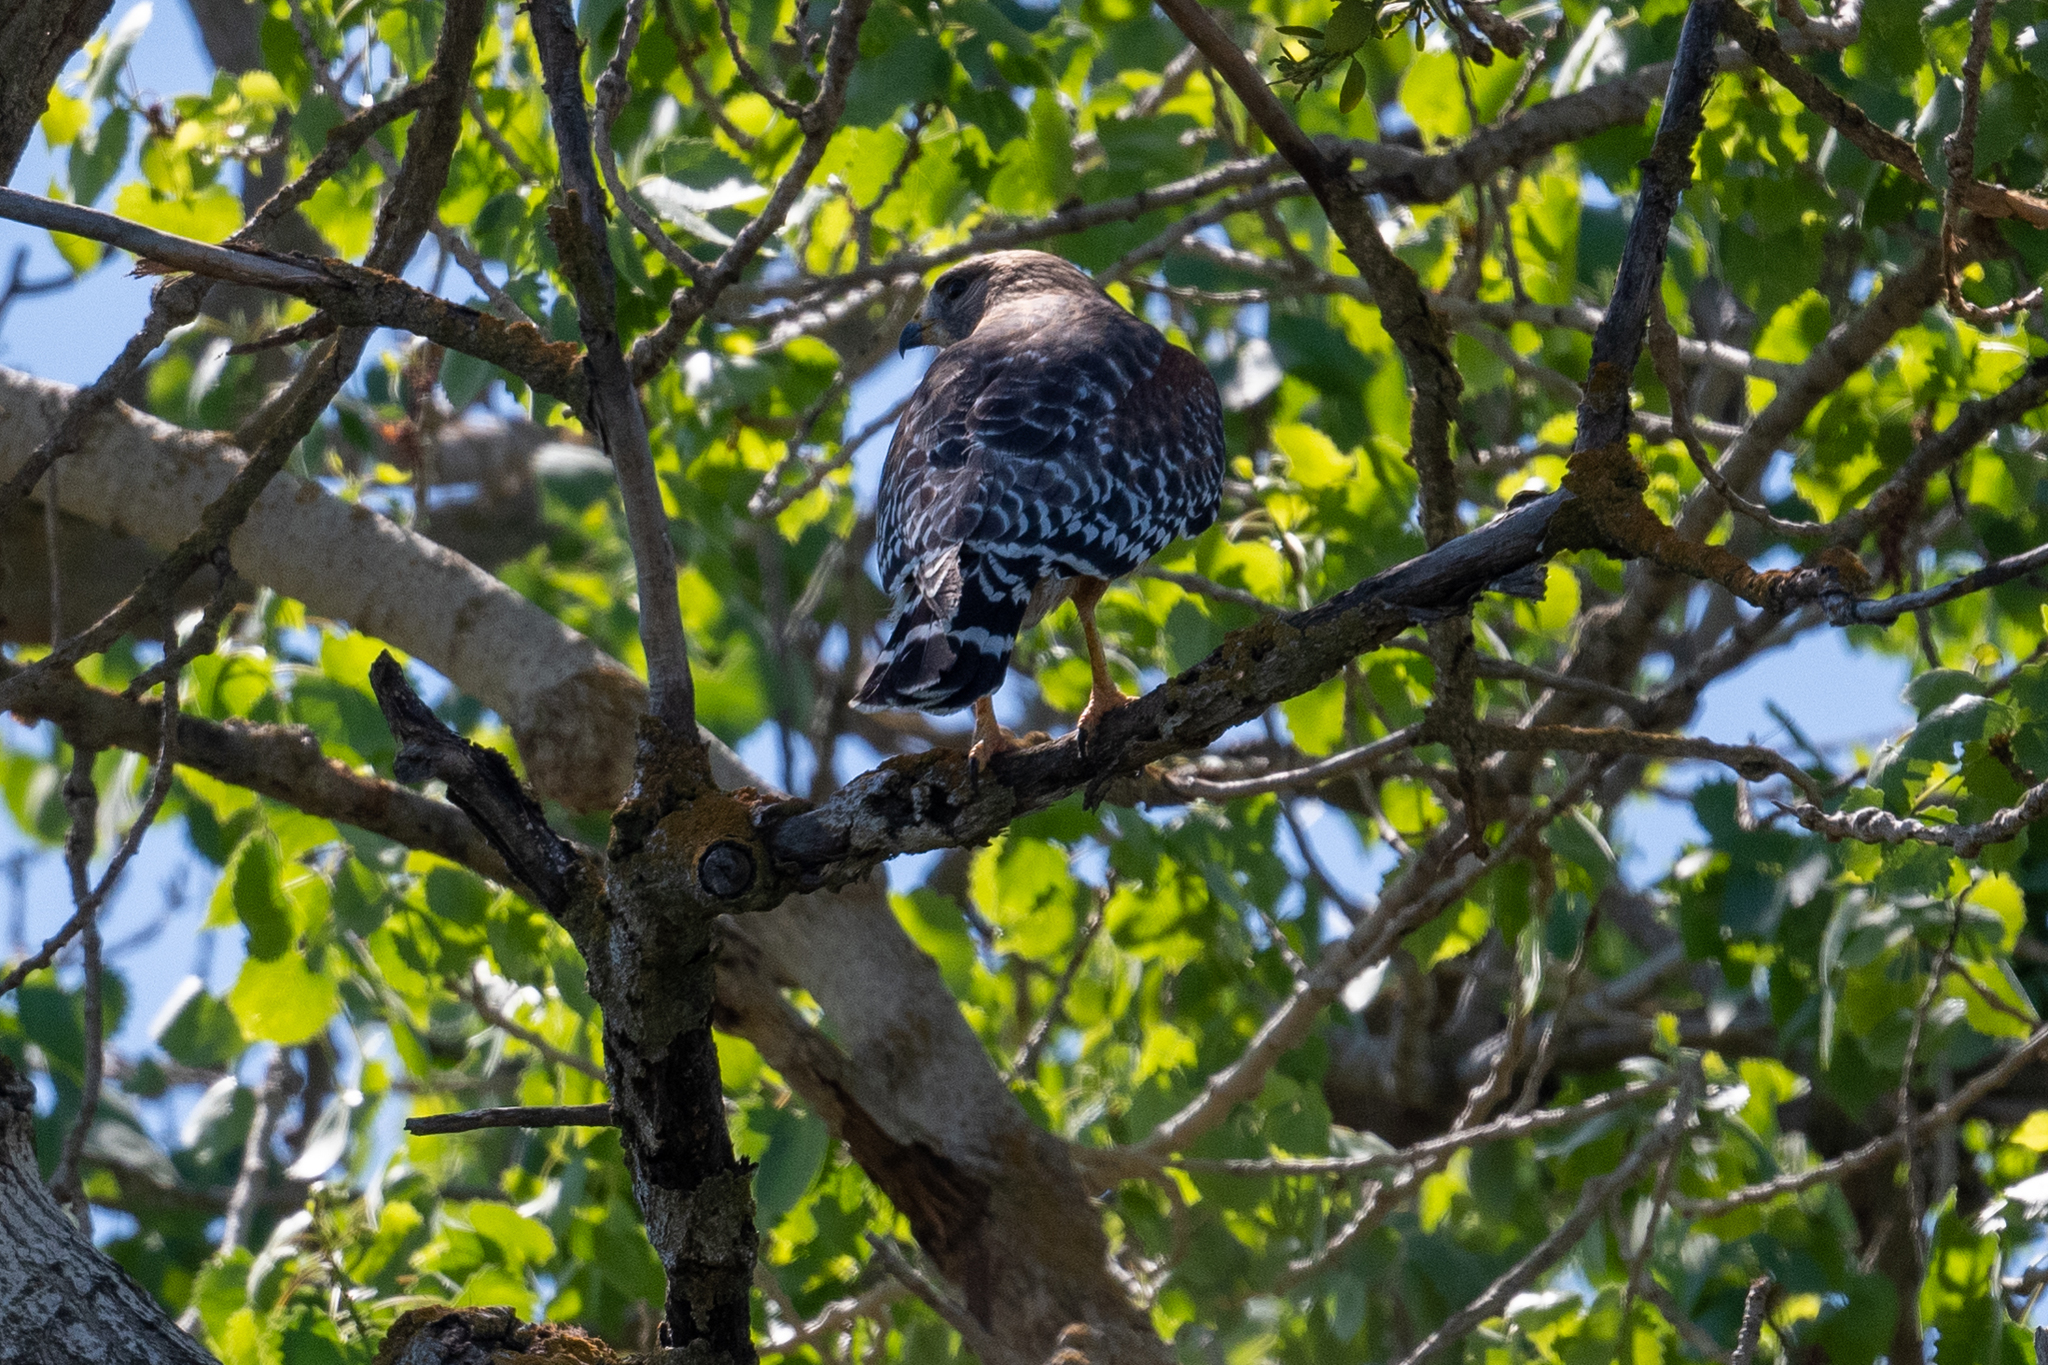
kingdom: Animalia
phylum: Chordata
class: Aves
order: Accipitriformes
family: Accipitridae
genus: Buteo
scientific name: Buteo lineatus
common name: Red-shouldered hawk
